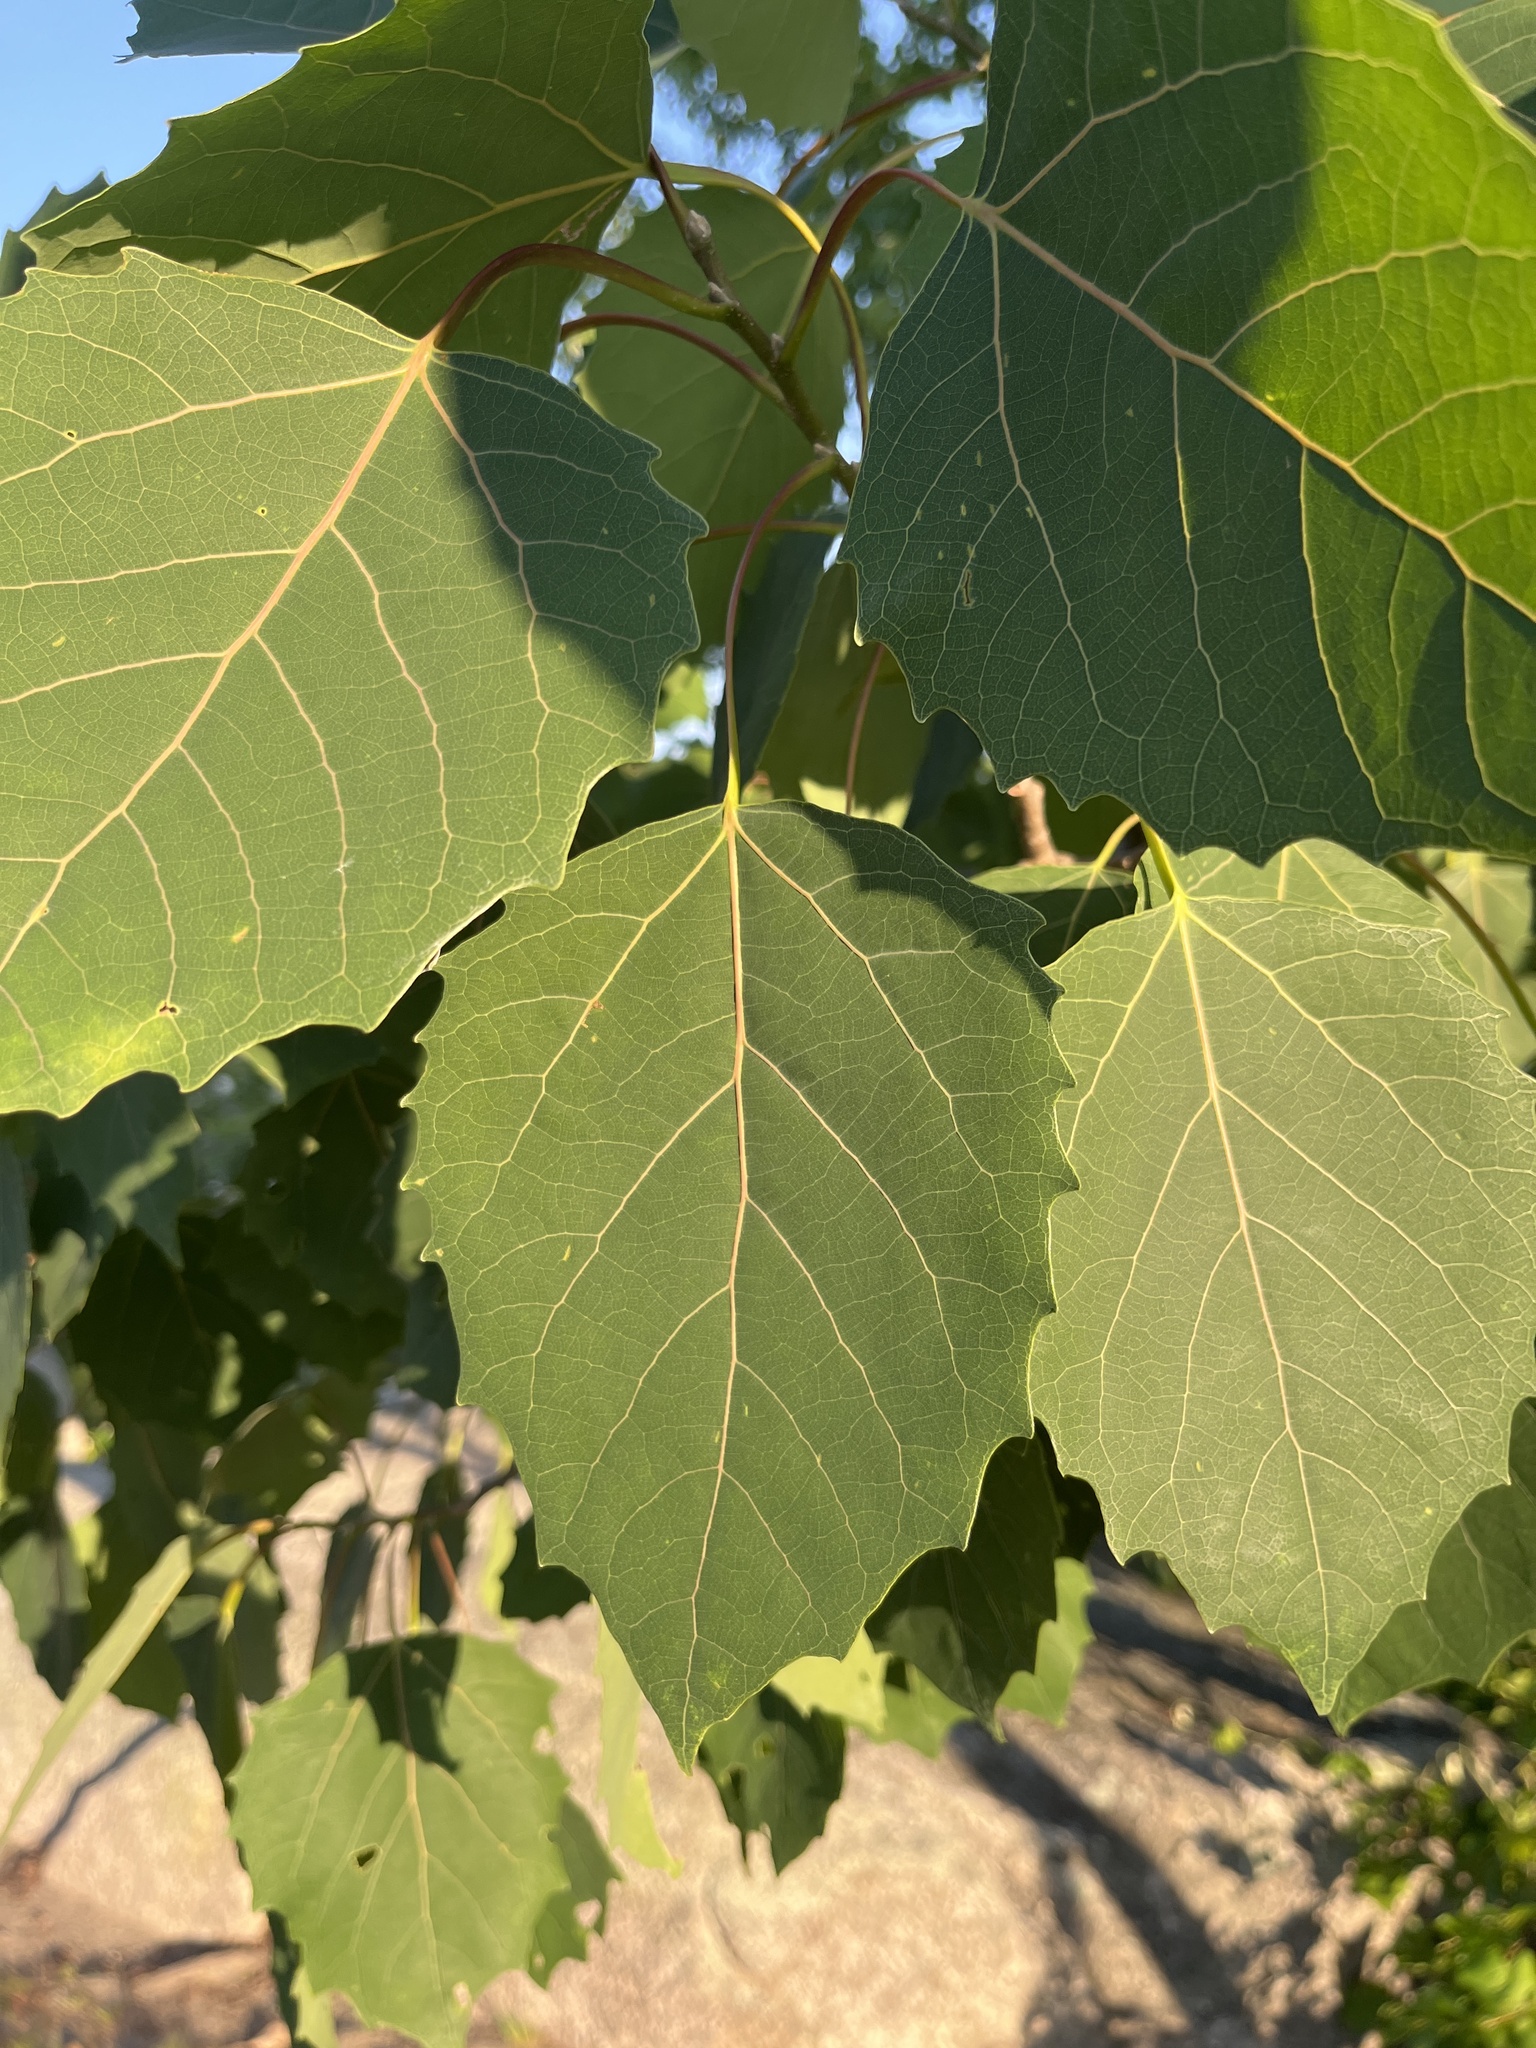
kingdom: Plantae
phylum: Tracheophyta
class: Magnoliopsida
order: Malpighiales
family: Salicaceae
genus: Populus
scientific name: Populus grandidentata
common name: Bigtooth aspen
